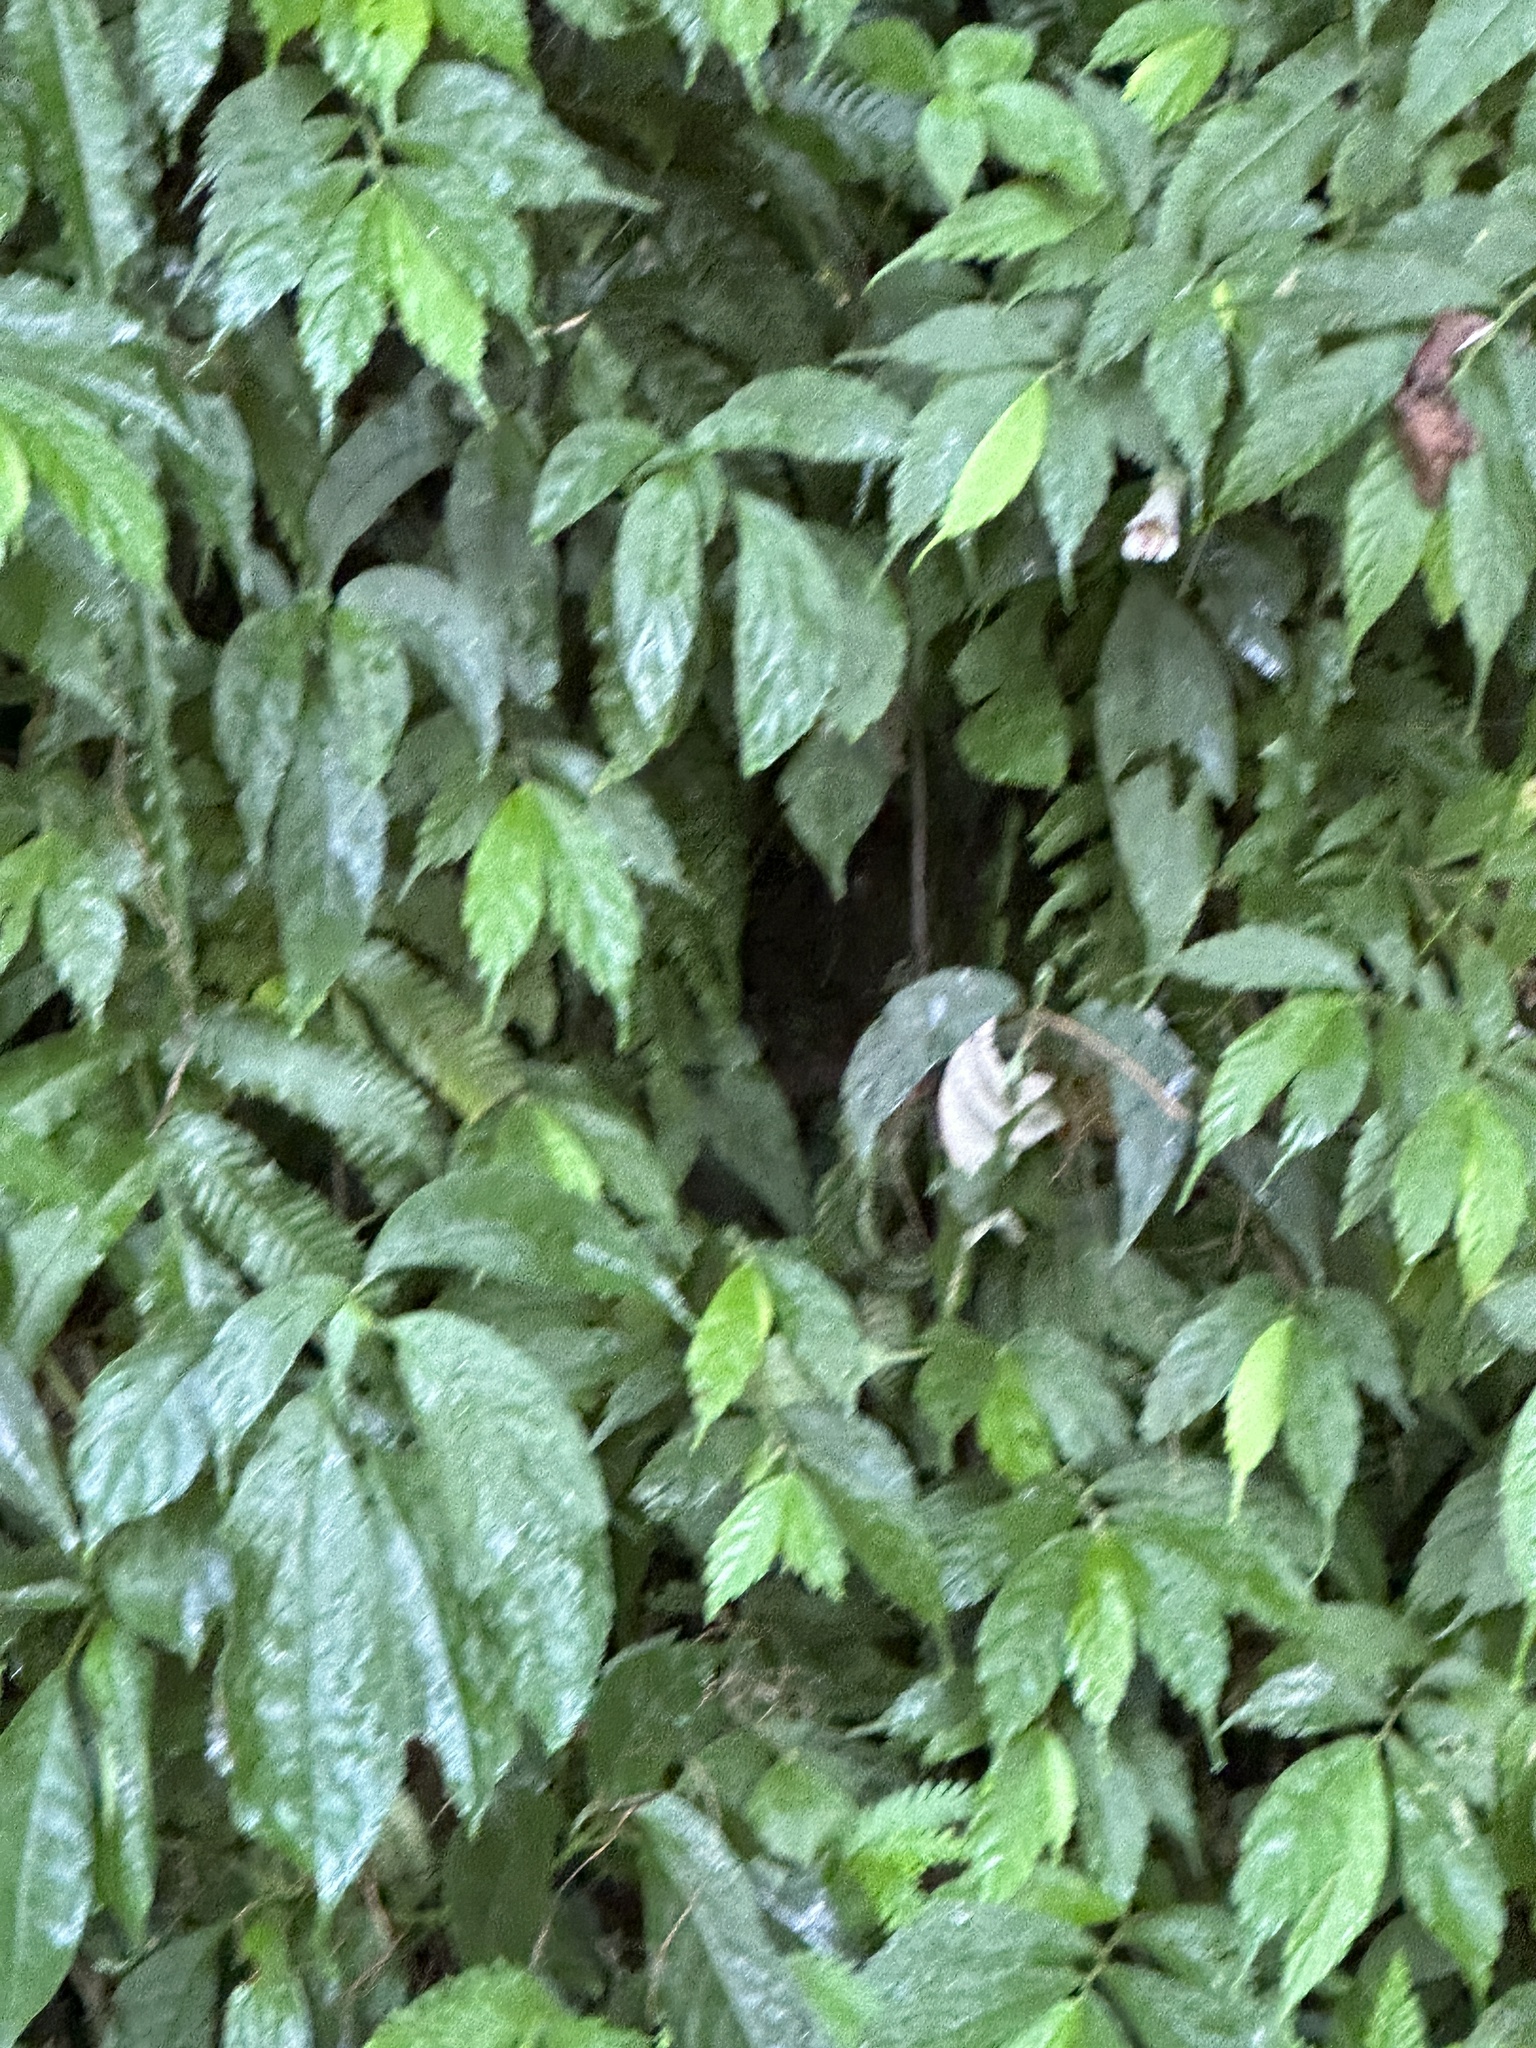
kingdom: Plantae
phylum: Tracheophyta
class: Magnoliopsida
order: Lamiales
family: Gesneriaceae
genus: Hemiboea
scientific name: Hemiboea bicornuta
